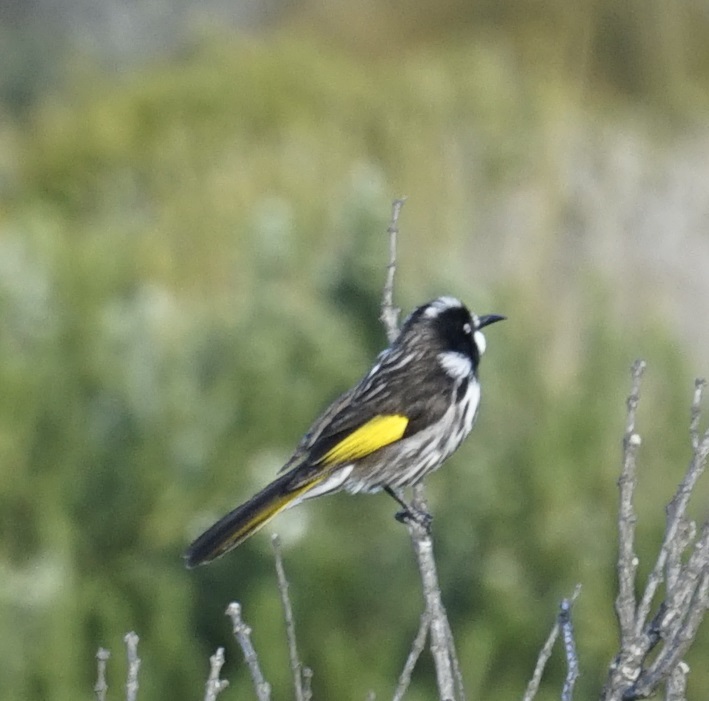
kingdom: Animalia
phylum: Chordata
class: Aves
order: Passeriformes
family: Meliphagidae
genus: Phylidonyris
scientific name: Phylidonyris novaehollandiae
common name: New holland honeyeater
